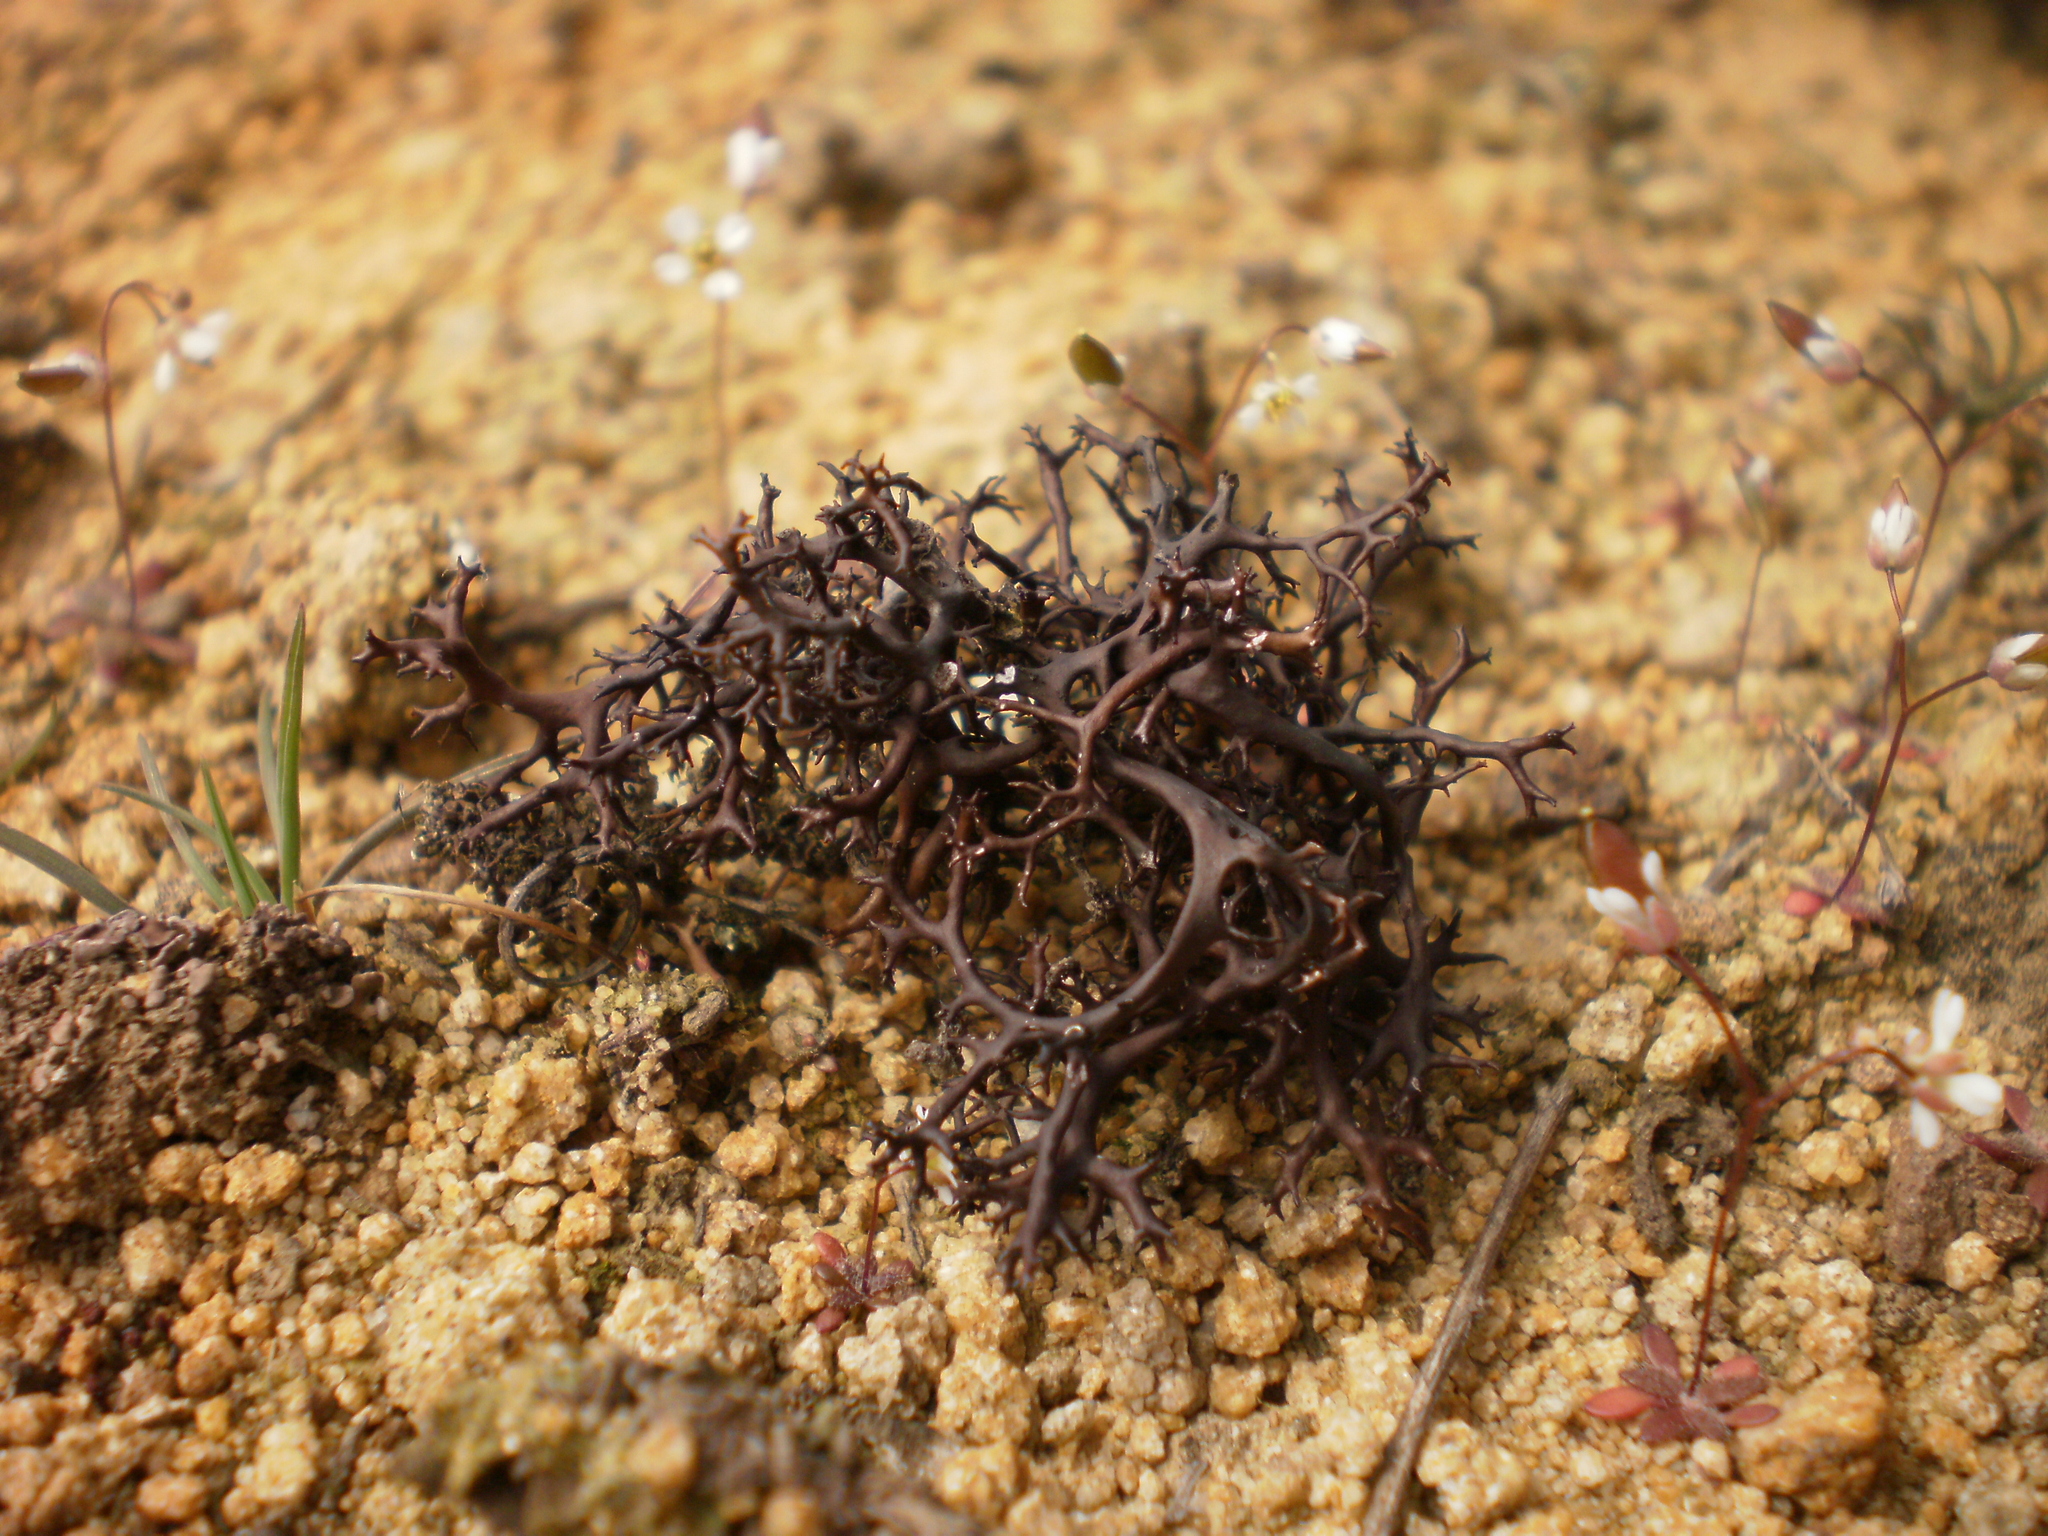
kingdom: Fungi
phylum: Ascomycota
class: Lecanoromycetes
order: Lecanorales
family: Parmeliaceae
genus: Cetraria
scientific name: Cetraria aculeata
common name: Spiny heath lichen
